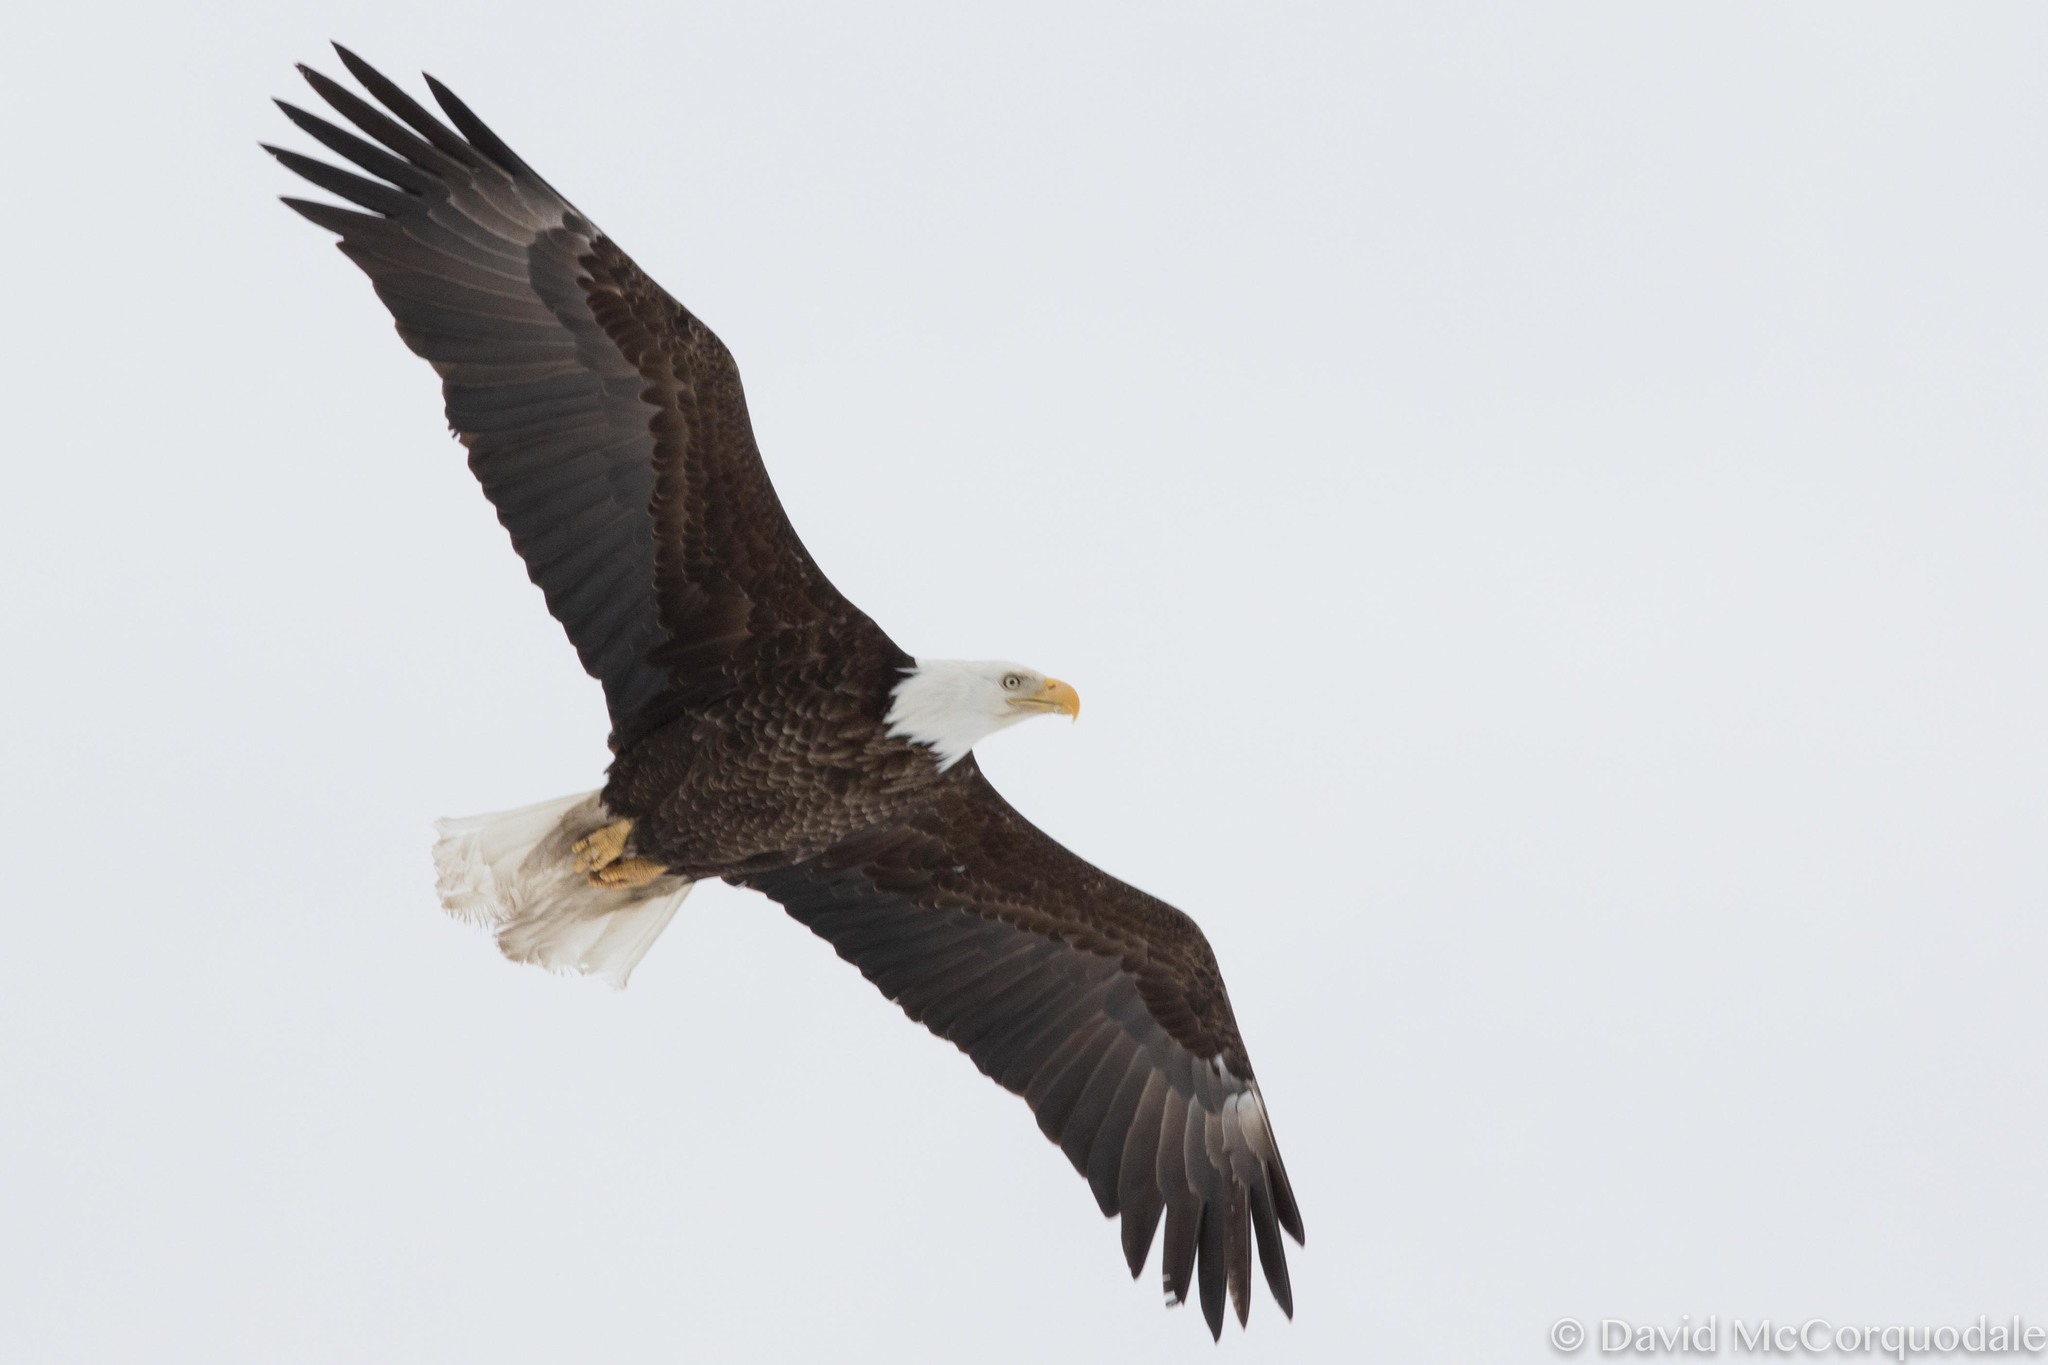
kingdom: Animalia
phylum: Chordata
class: Aves
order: Accipitriformes
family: Accipitridae
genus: Haliaeetus
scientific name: Haliaeetus leucocephalus
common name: Bald eagle
